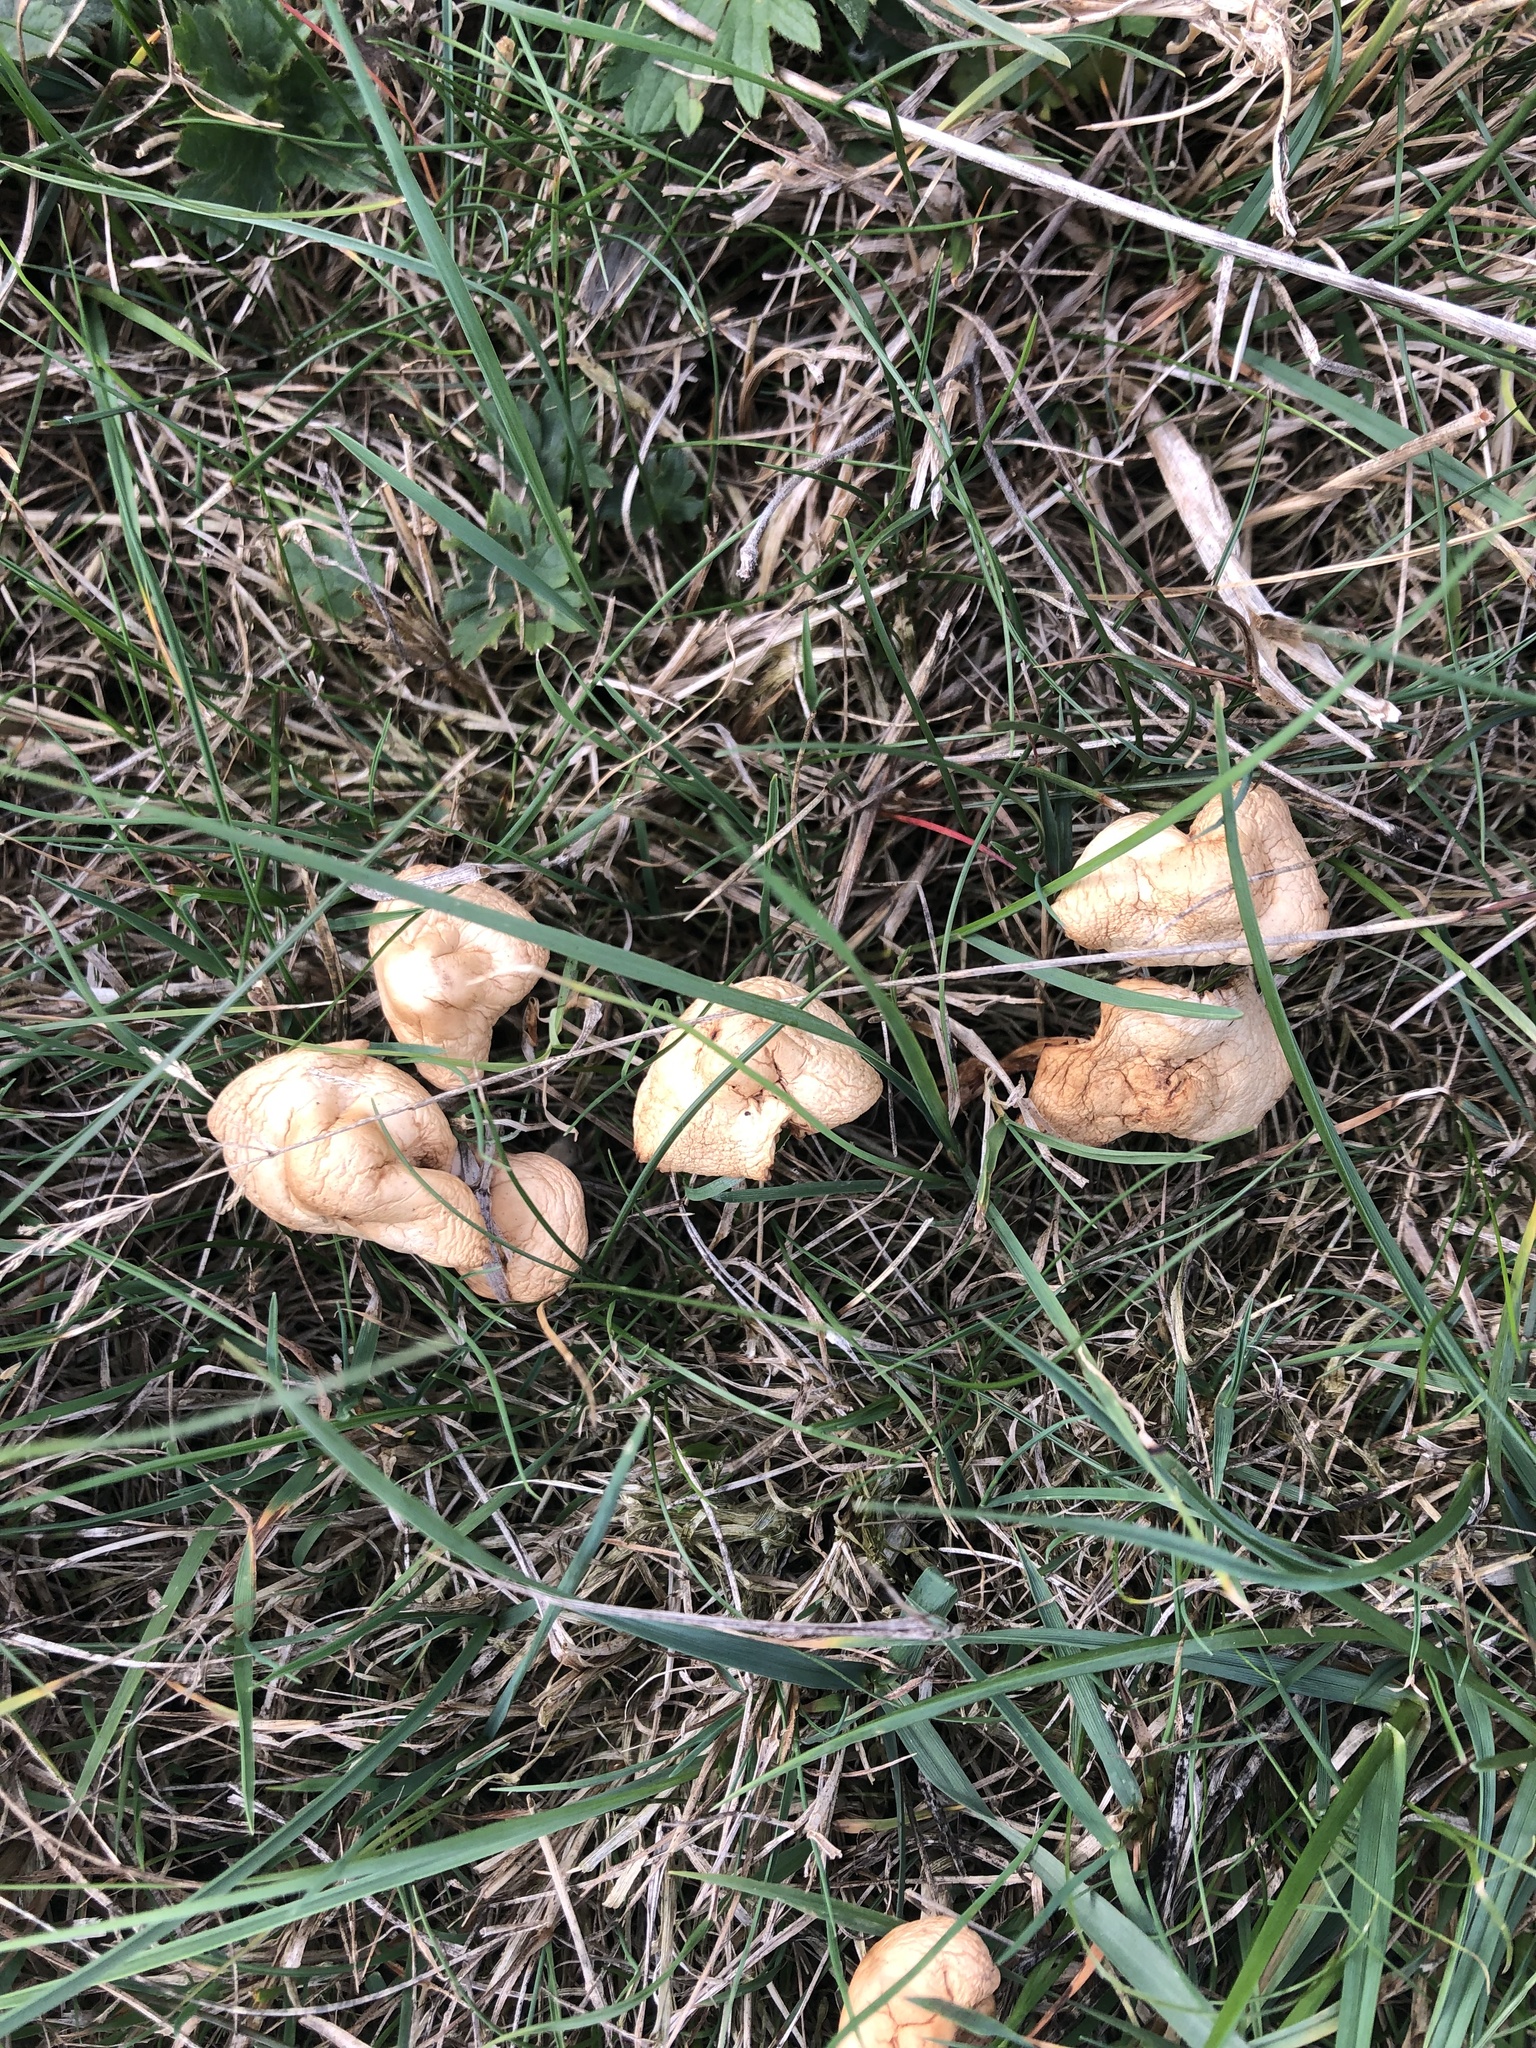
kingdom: Fungi
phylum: Basidiomycota
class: Agaricomycetes
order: Agaricales
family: Marasmiaceae
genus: Marasmius
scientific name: Marasmius oreades
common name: Fairy ring champignon
